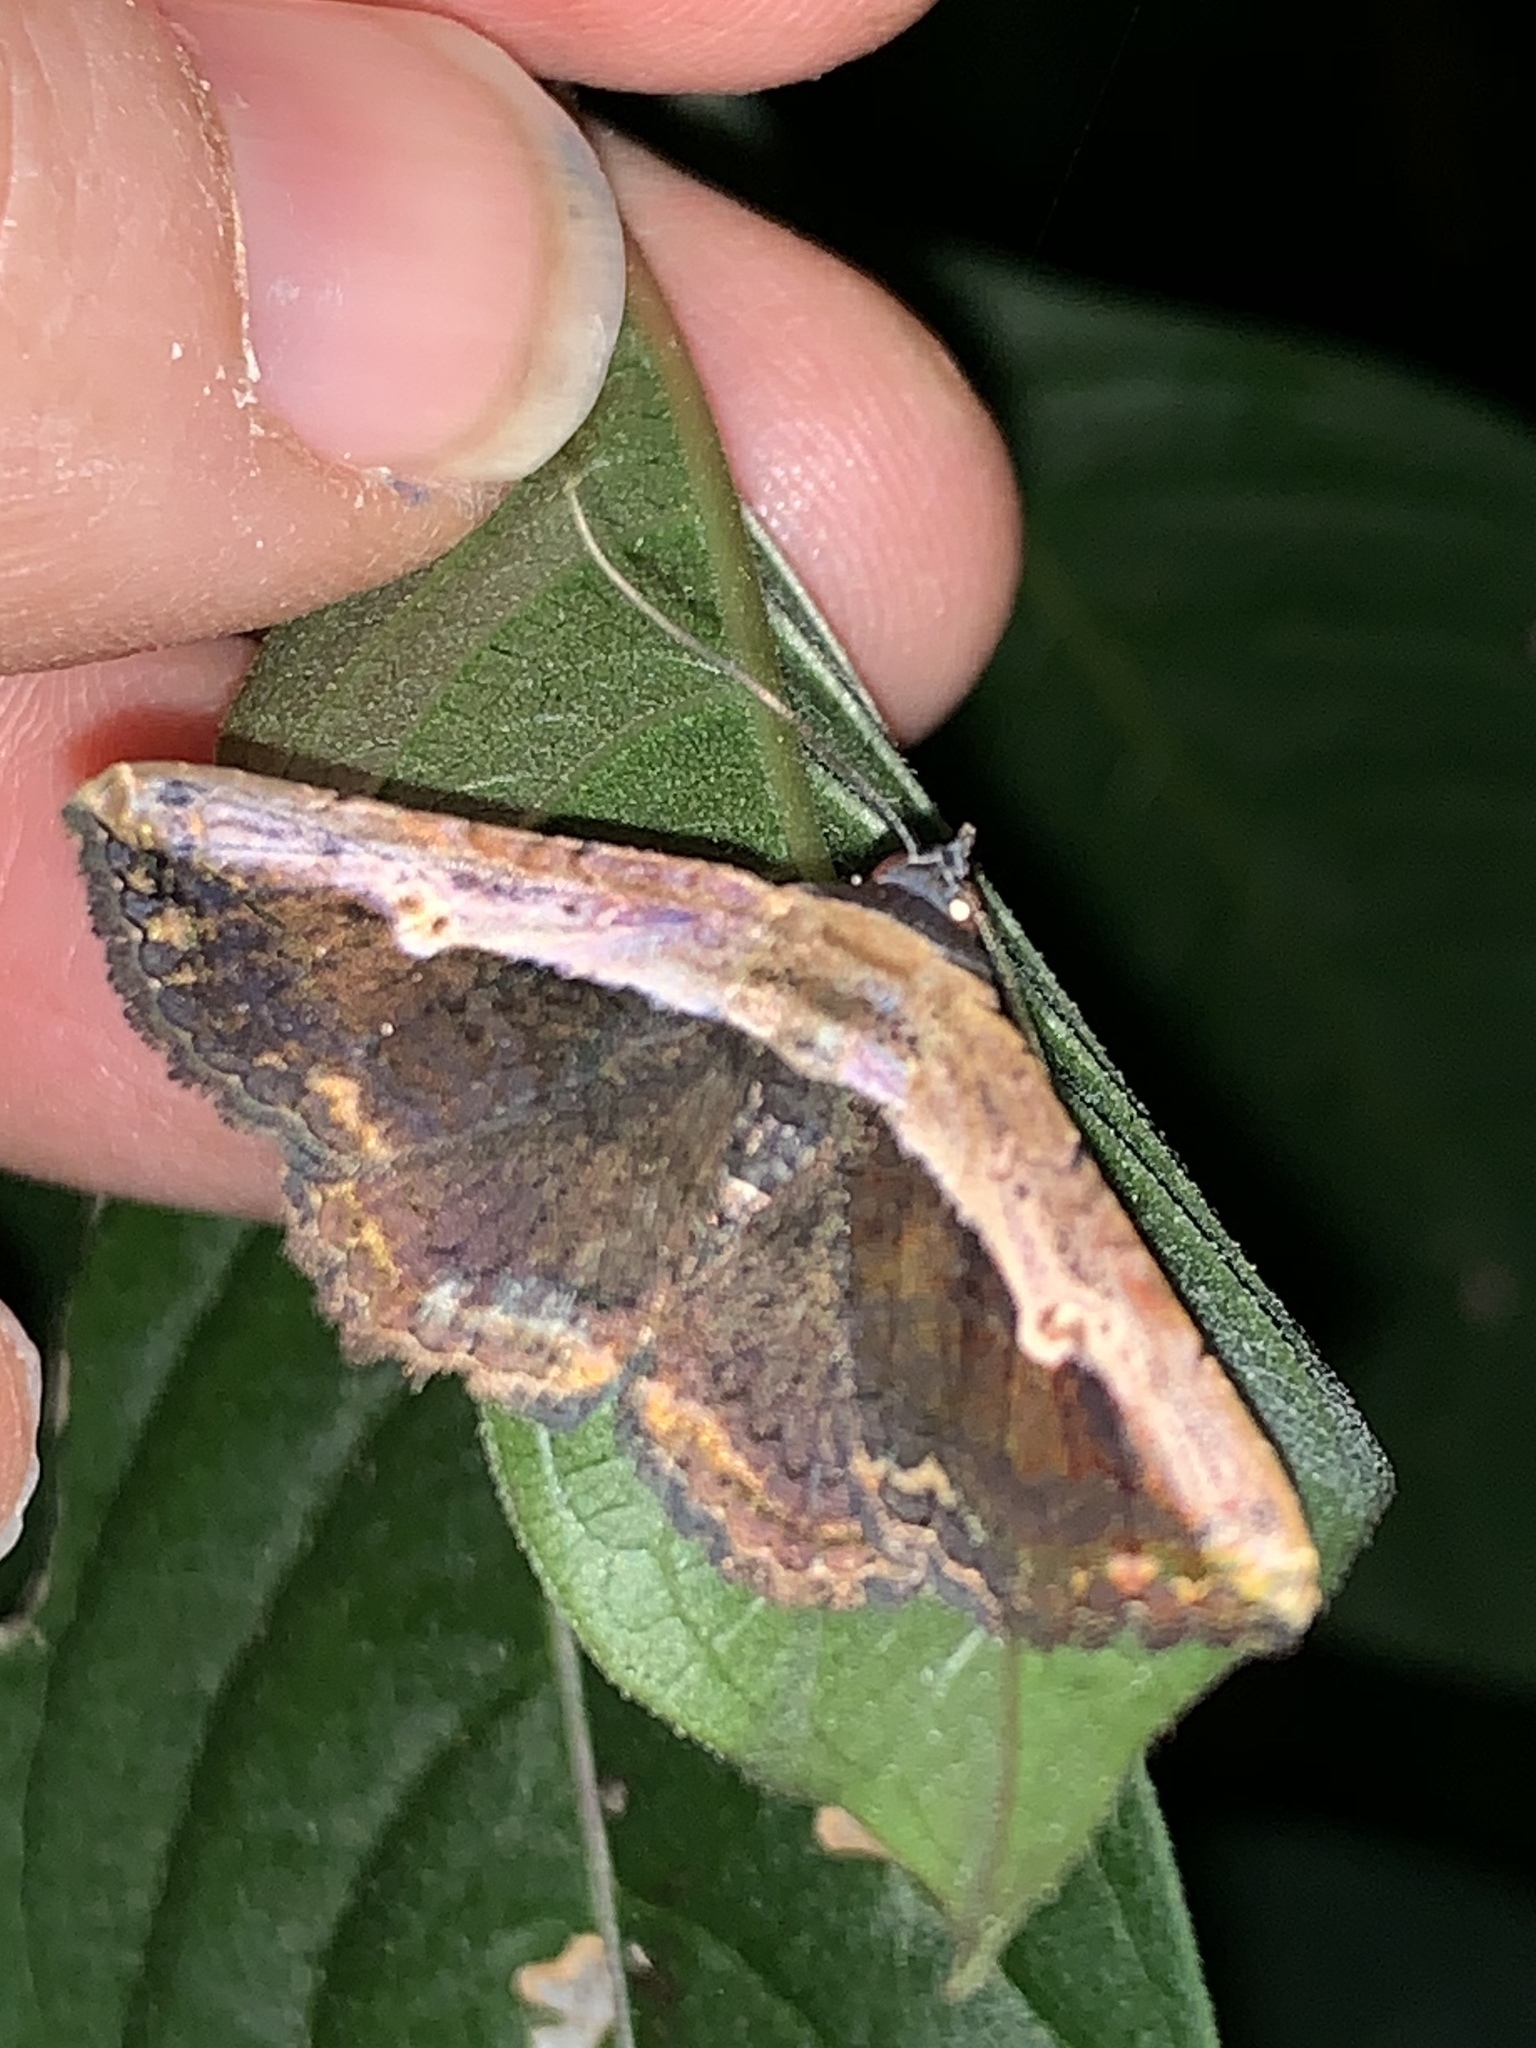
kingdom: Animalia
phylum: Arthropoda
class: Insecta
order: Lepidoptera
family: Erebidae
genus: Selenisa
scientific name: Selenisa sueroides
